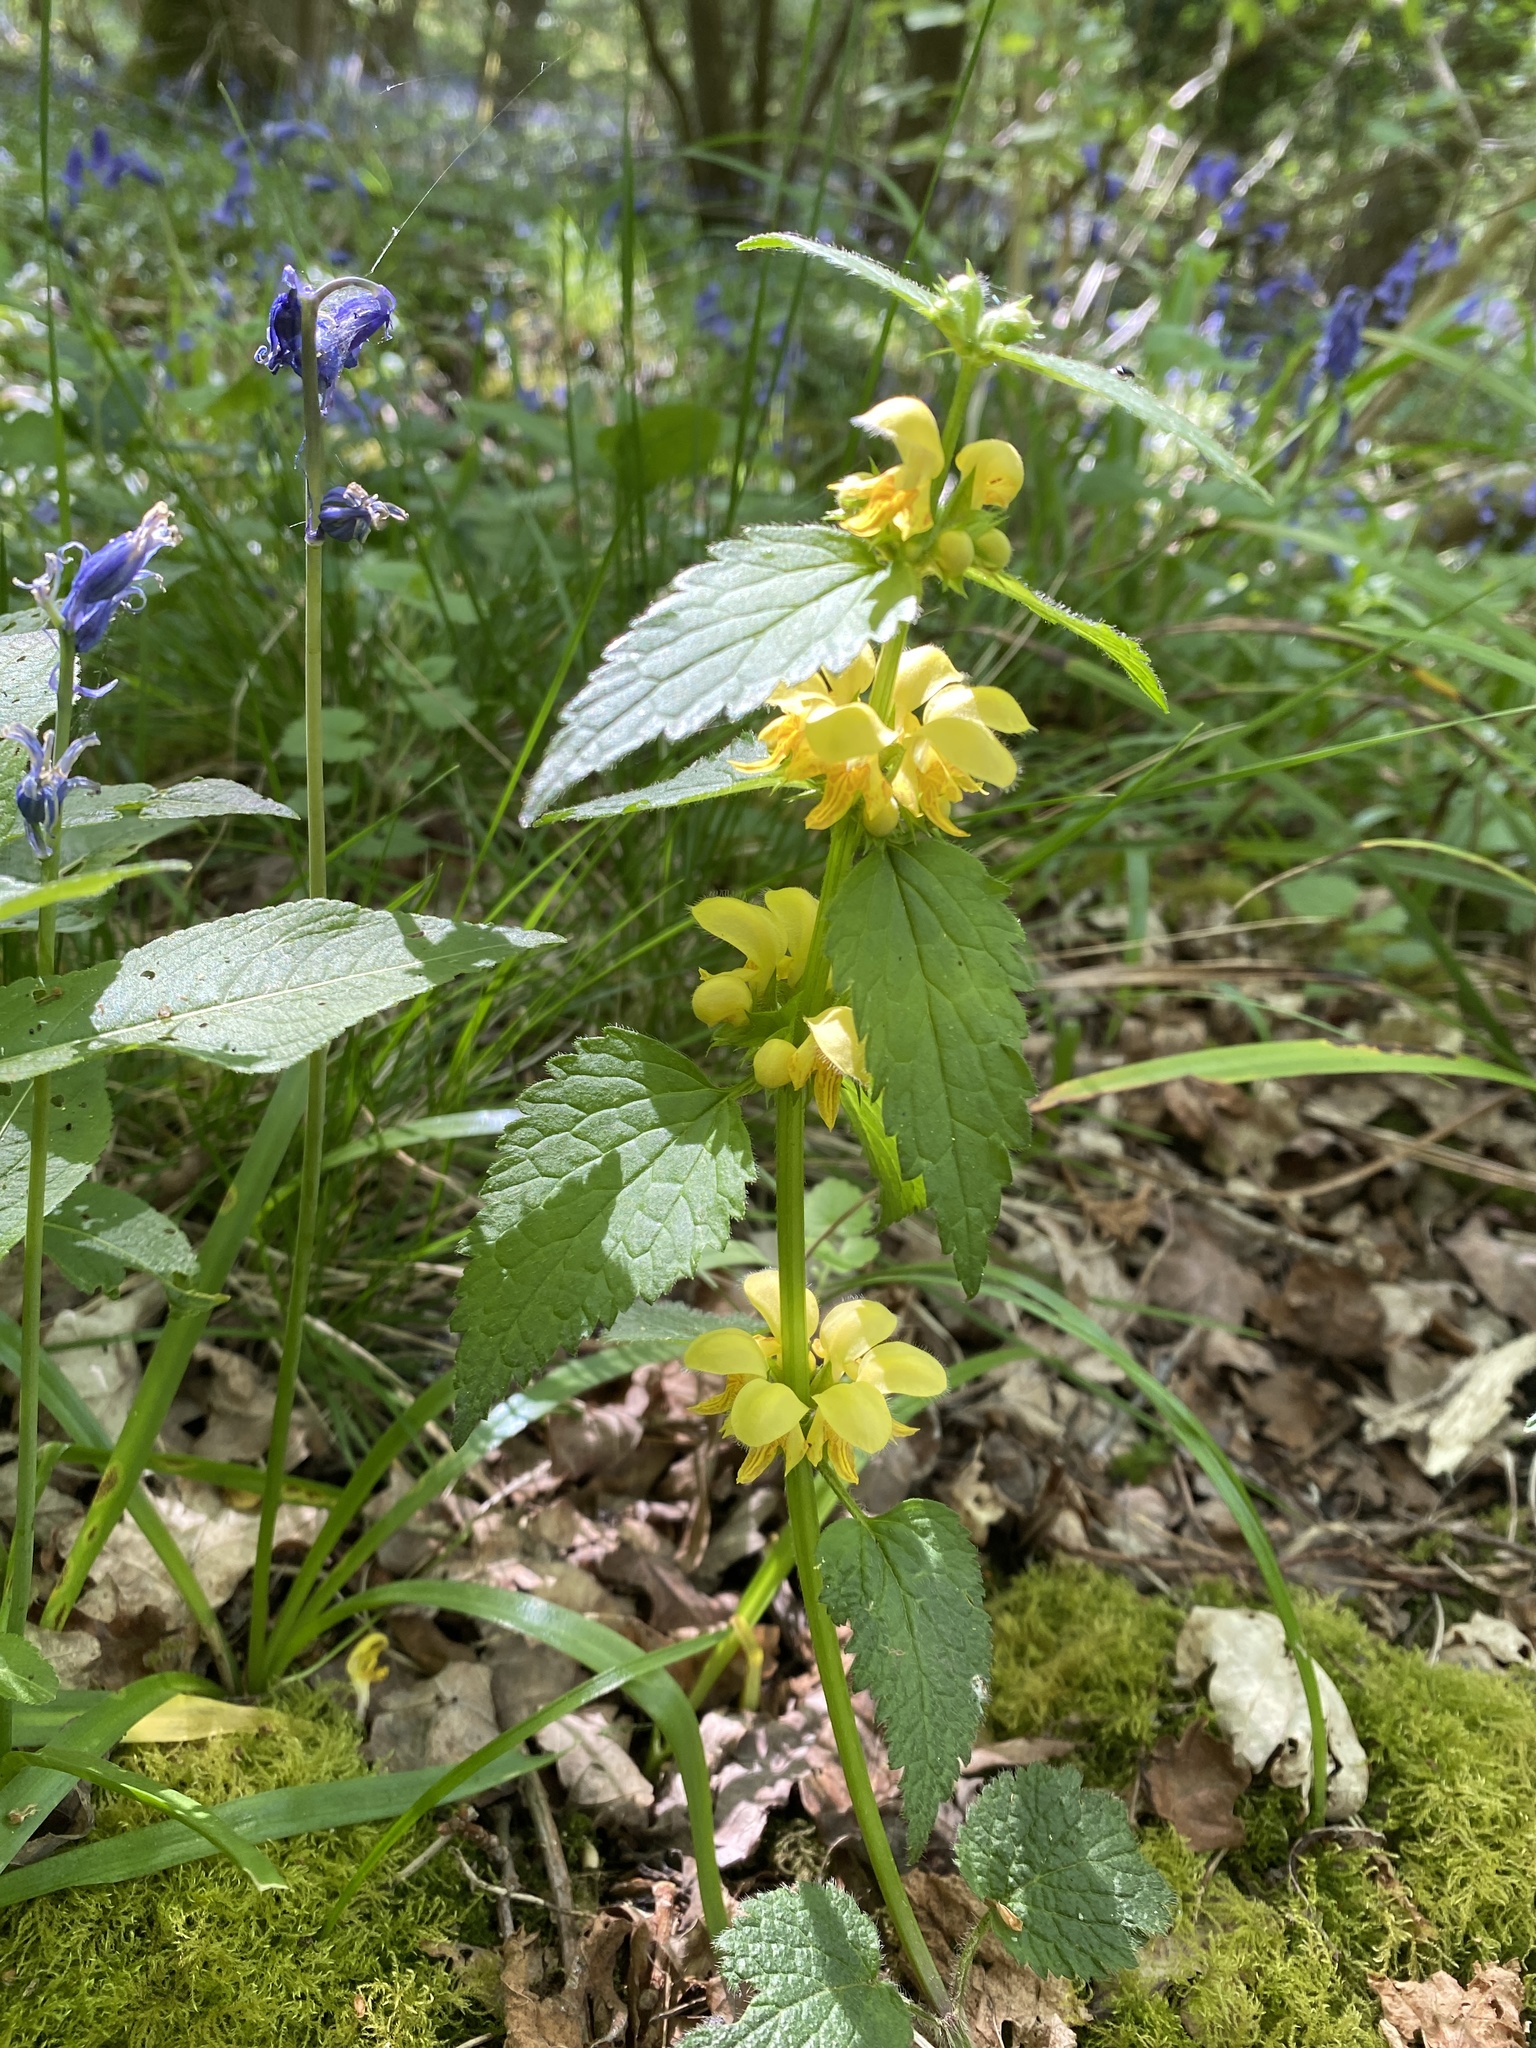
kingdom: Plantae
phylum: Tracheophyta
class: Magnoliopsida
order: Lamiales
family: Lamiaceae
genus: Lamium
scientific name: Lamium galeobdolon
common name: Yellow archangel
